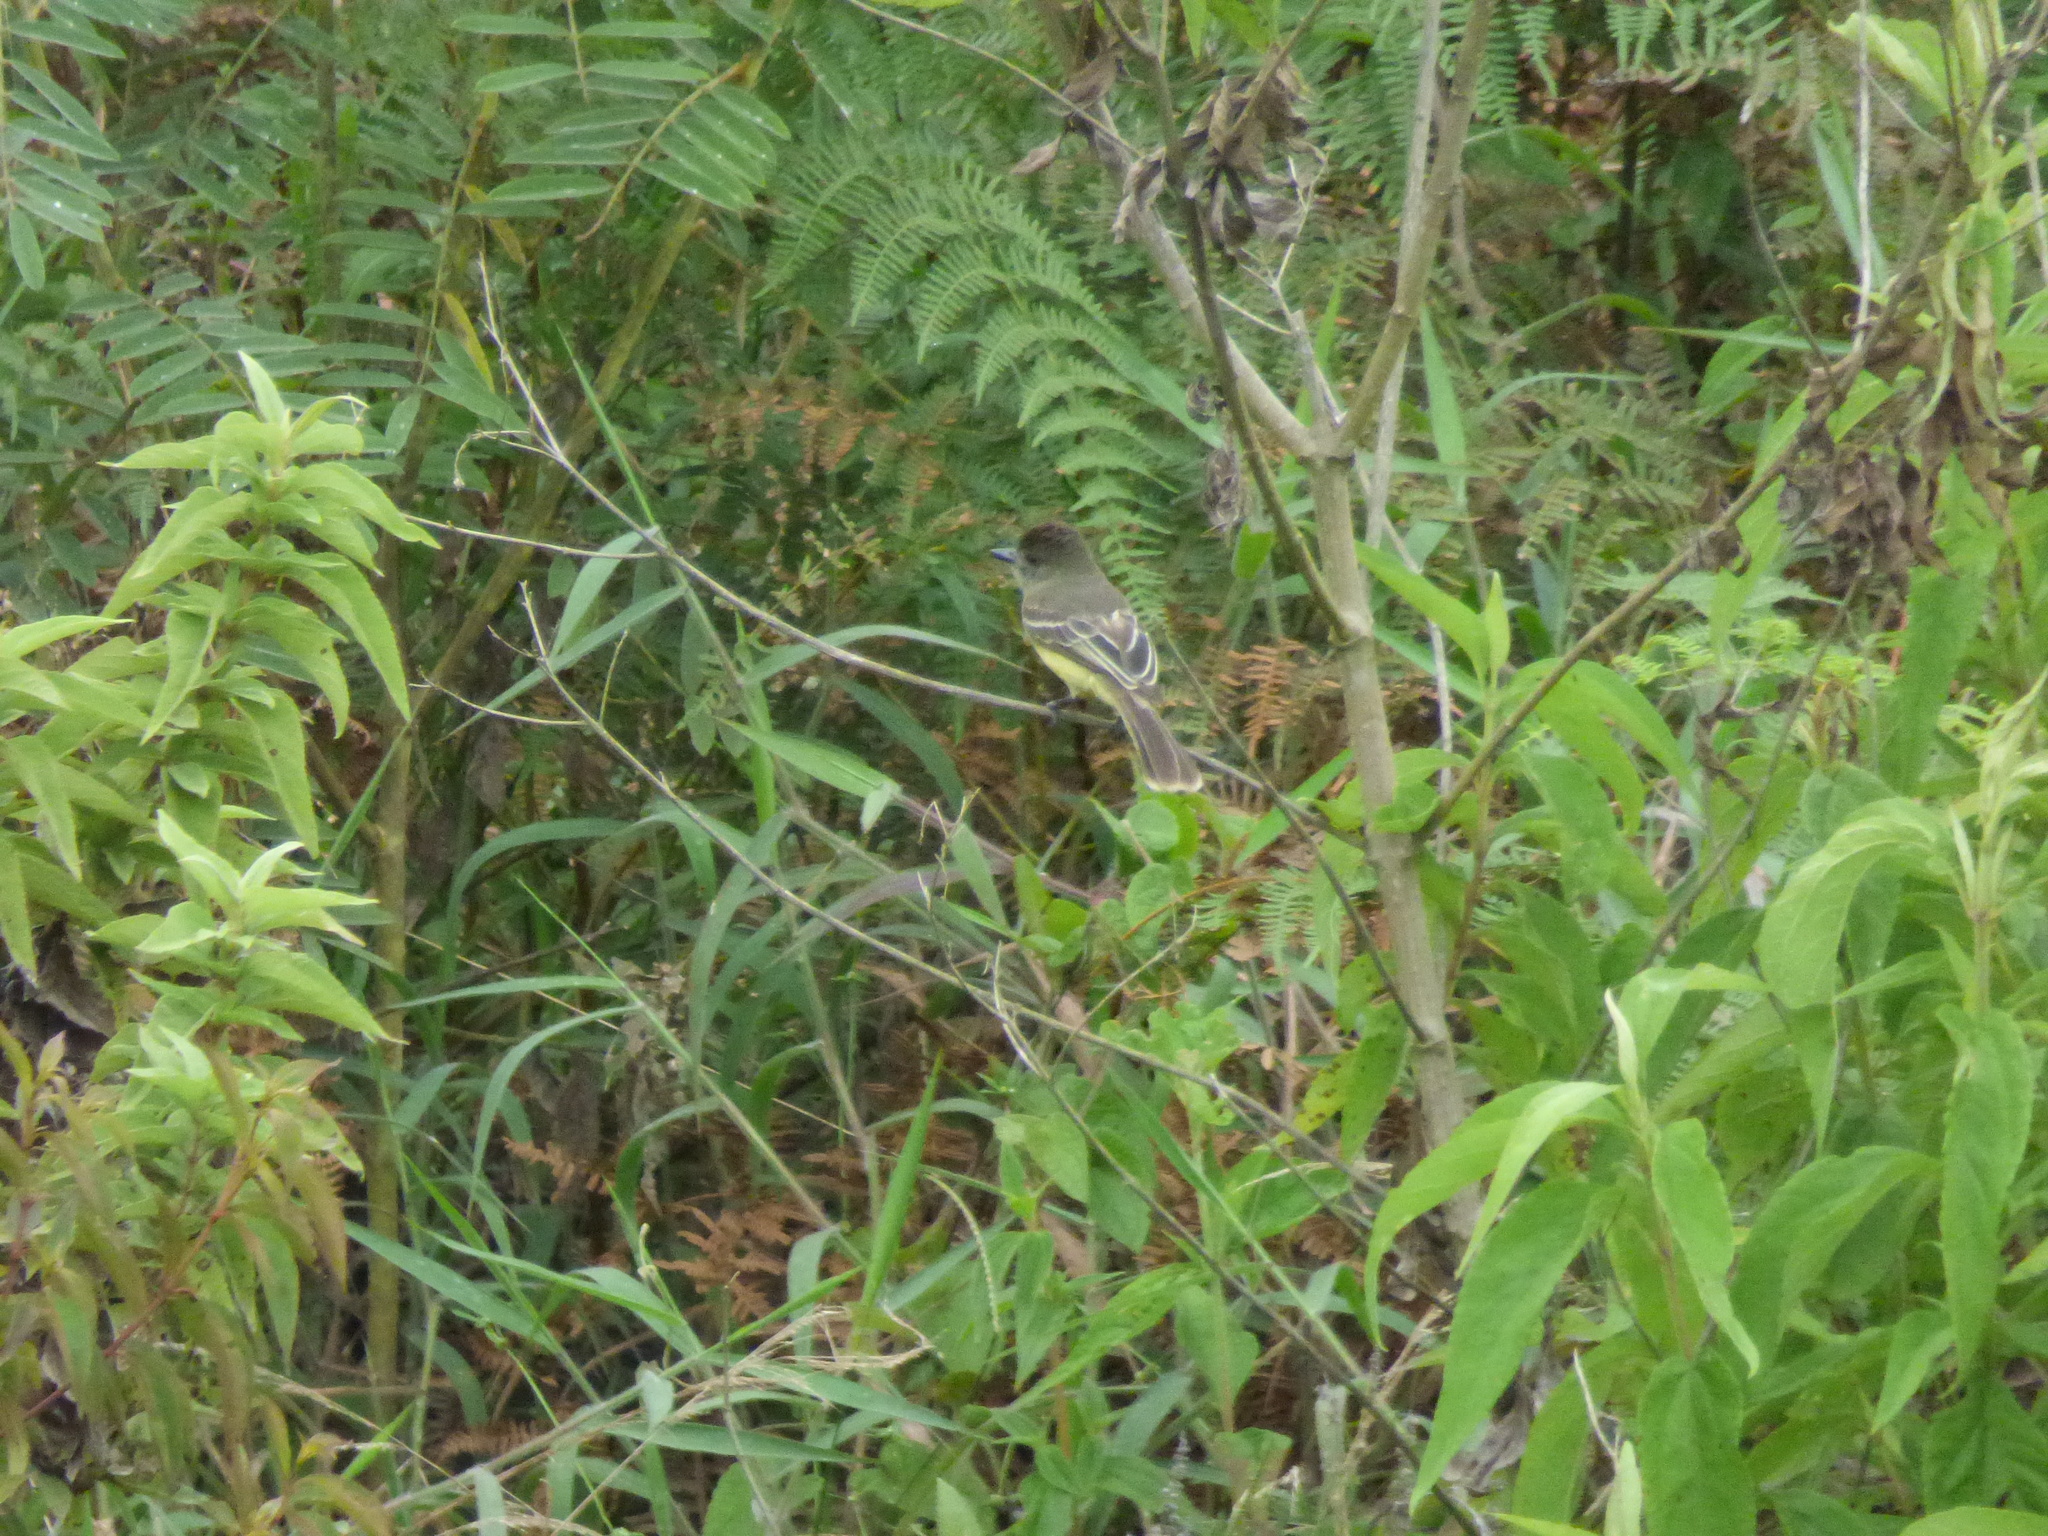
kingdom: Animalia
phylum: Chordata
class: Aves
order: Passeriformes
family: Tyrannidae
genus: Myiarchus
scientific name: Myiarchus cephalotes
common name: Pale-edged flycatcher
